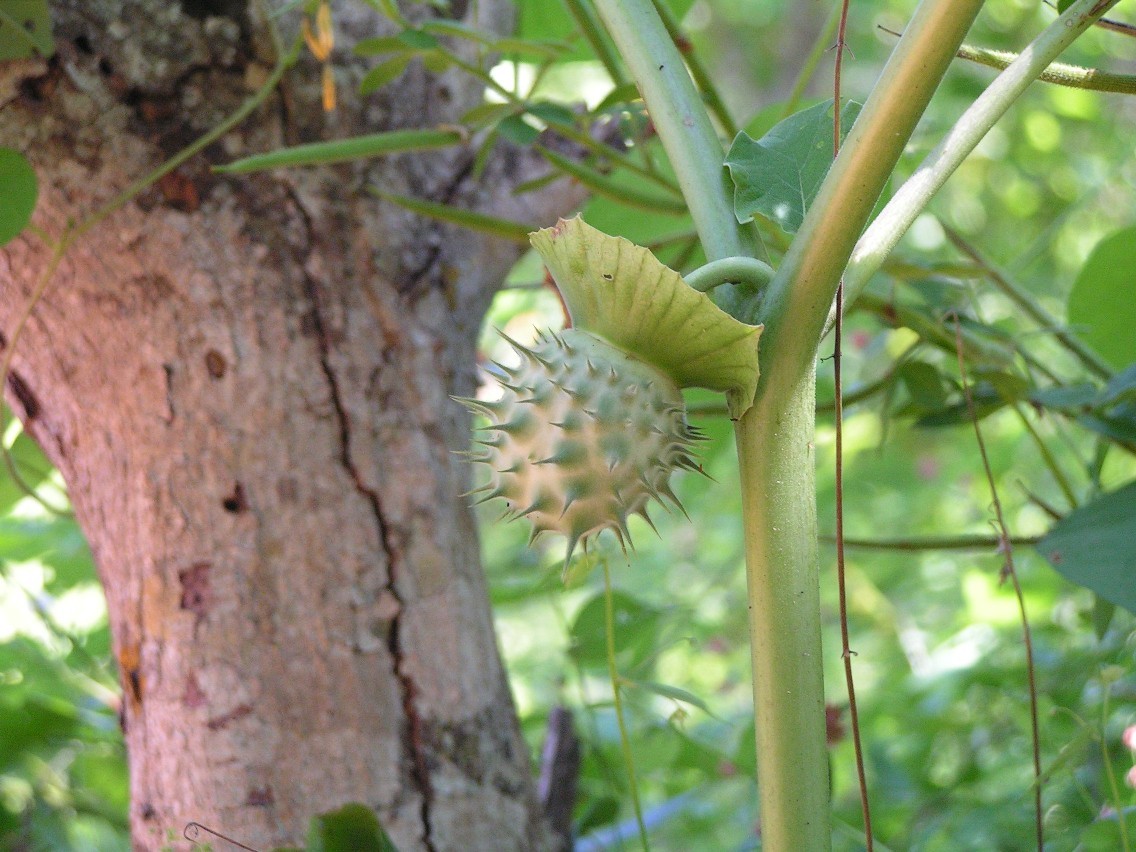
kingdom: Plantae
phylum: Tracheophyta
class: Magnoliopsida
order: Solanales
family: Solanaceae
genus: Datura
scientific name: Datura discolor
